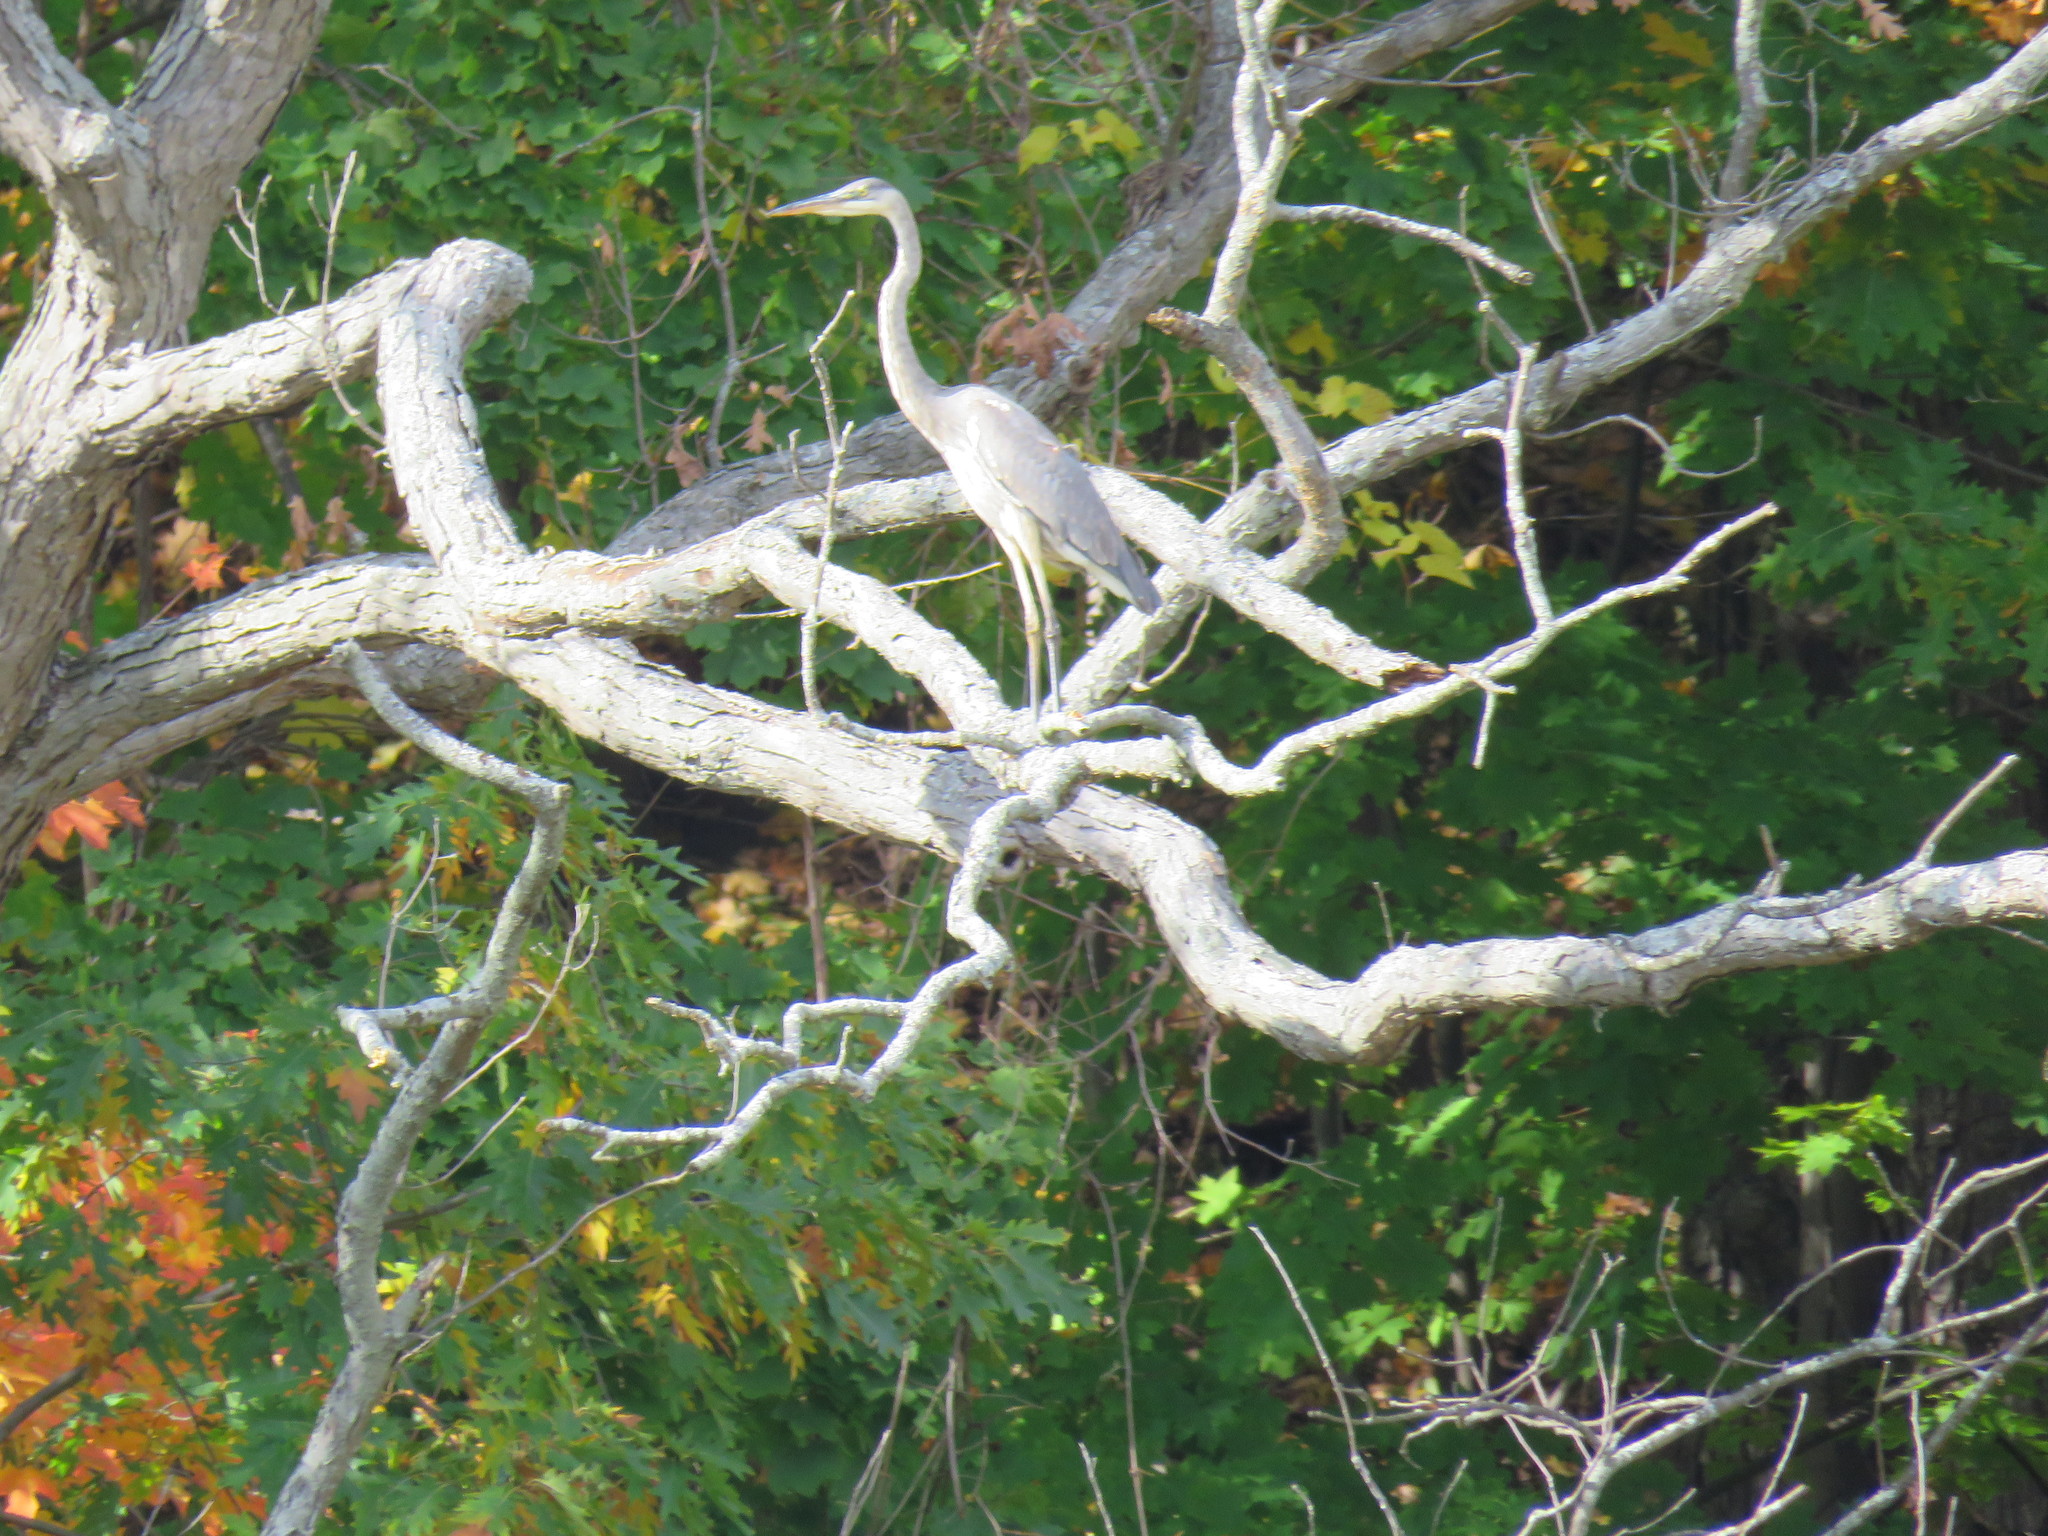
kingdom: Animalia
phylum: Chordata
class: Aves
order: Pelecaniformes
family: Ardeidae
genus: Ardea
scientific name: Ardea herodias
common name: Great blue heron
